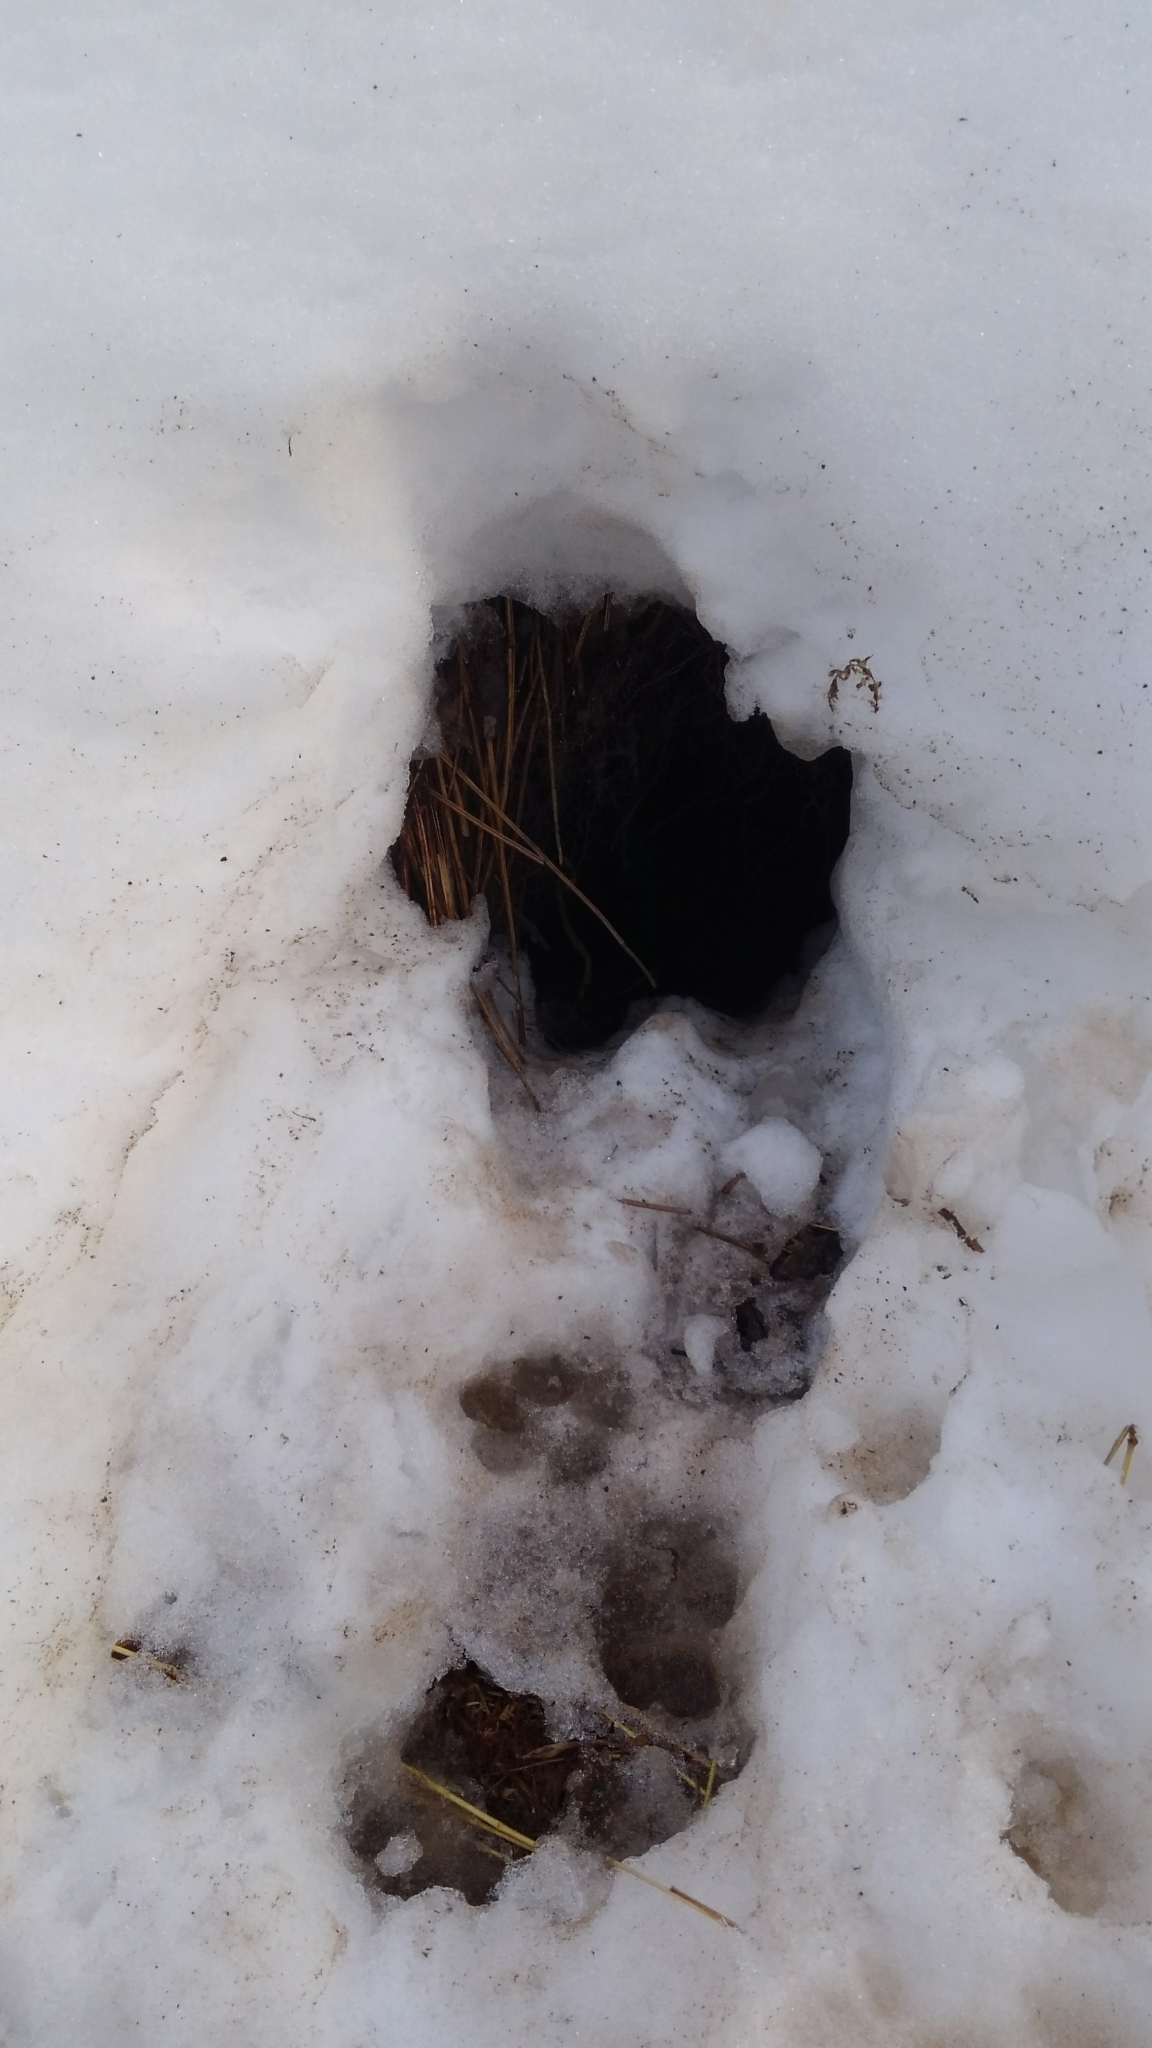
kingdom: Animalia
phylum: Chordata
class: Mammalia
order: Carnivora
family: Canidae
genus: Vulpes
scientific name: Vulpes vulpes
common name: Red fox
